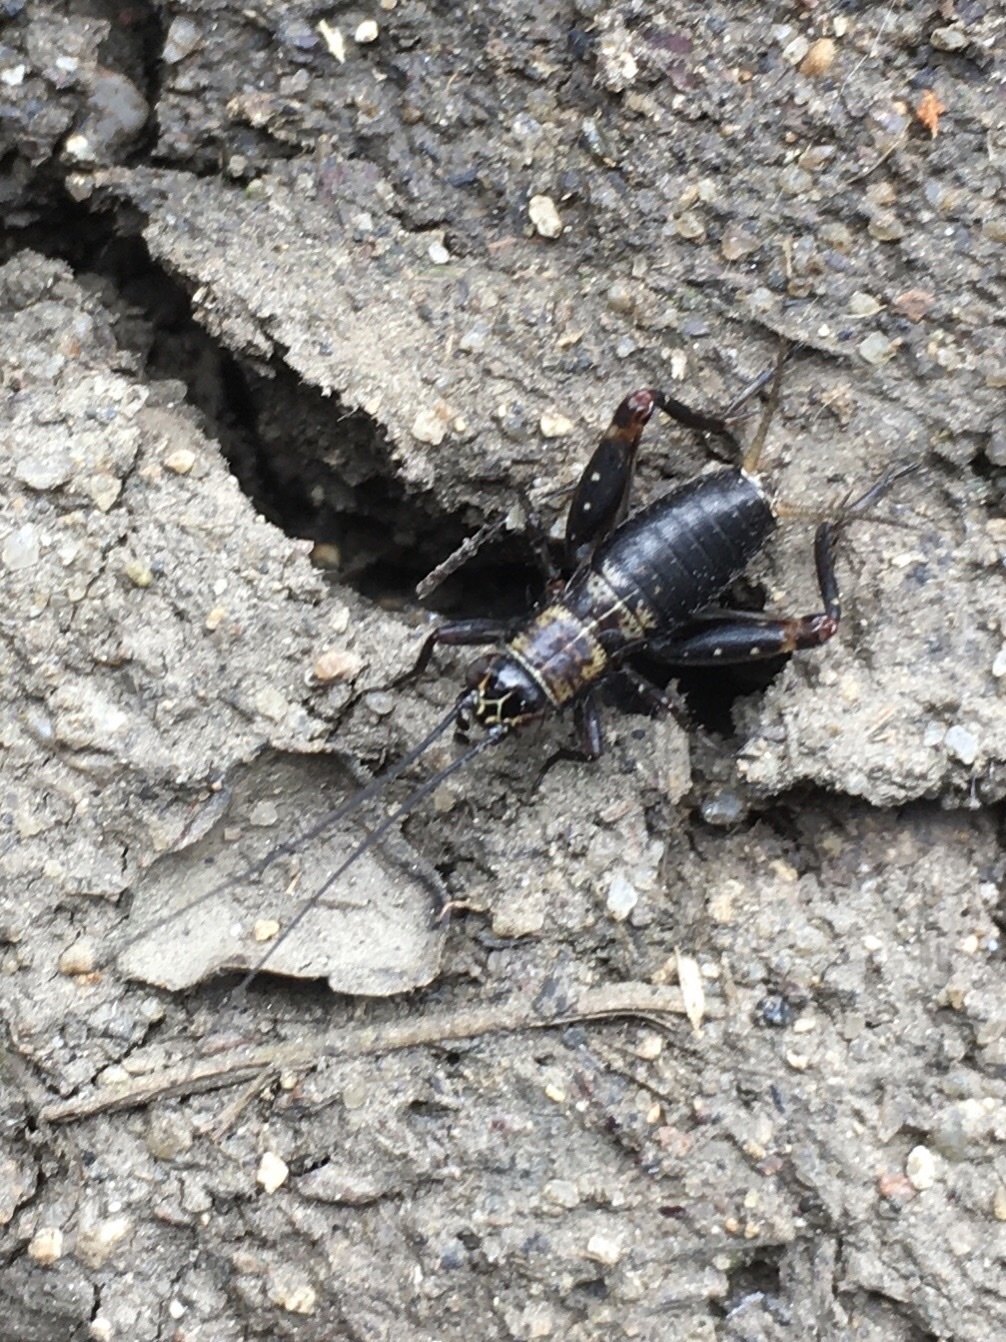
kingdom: Animalia
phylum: Arthropoda
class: Insecta
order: Orthoptera
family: Trigonidiidae
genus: Nemobius
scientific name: Nemobius sylvestris
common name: Wood-cricket
